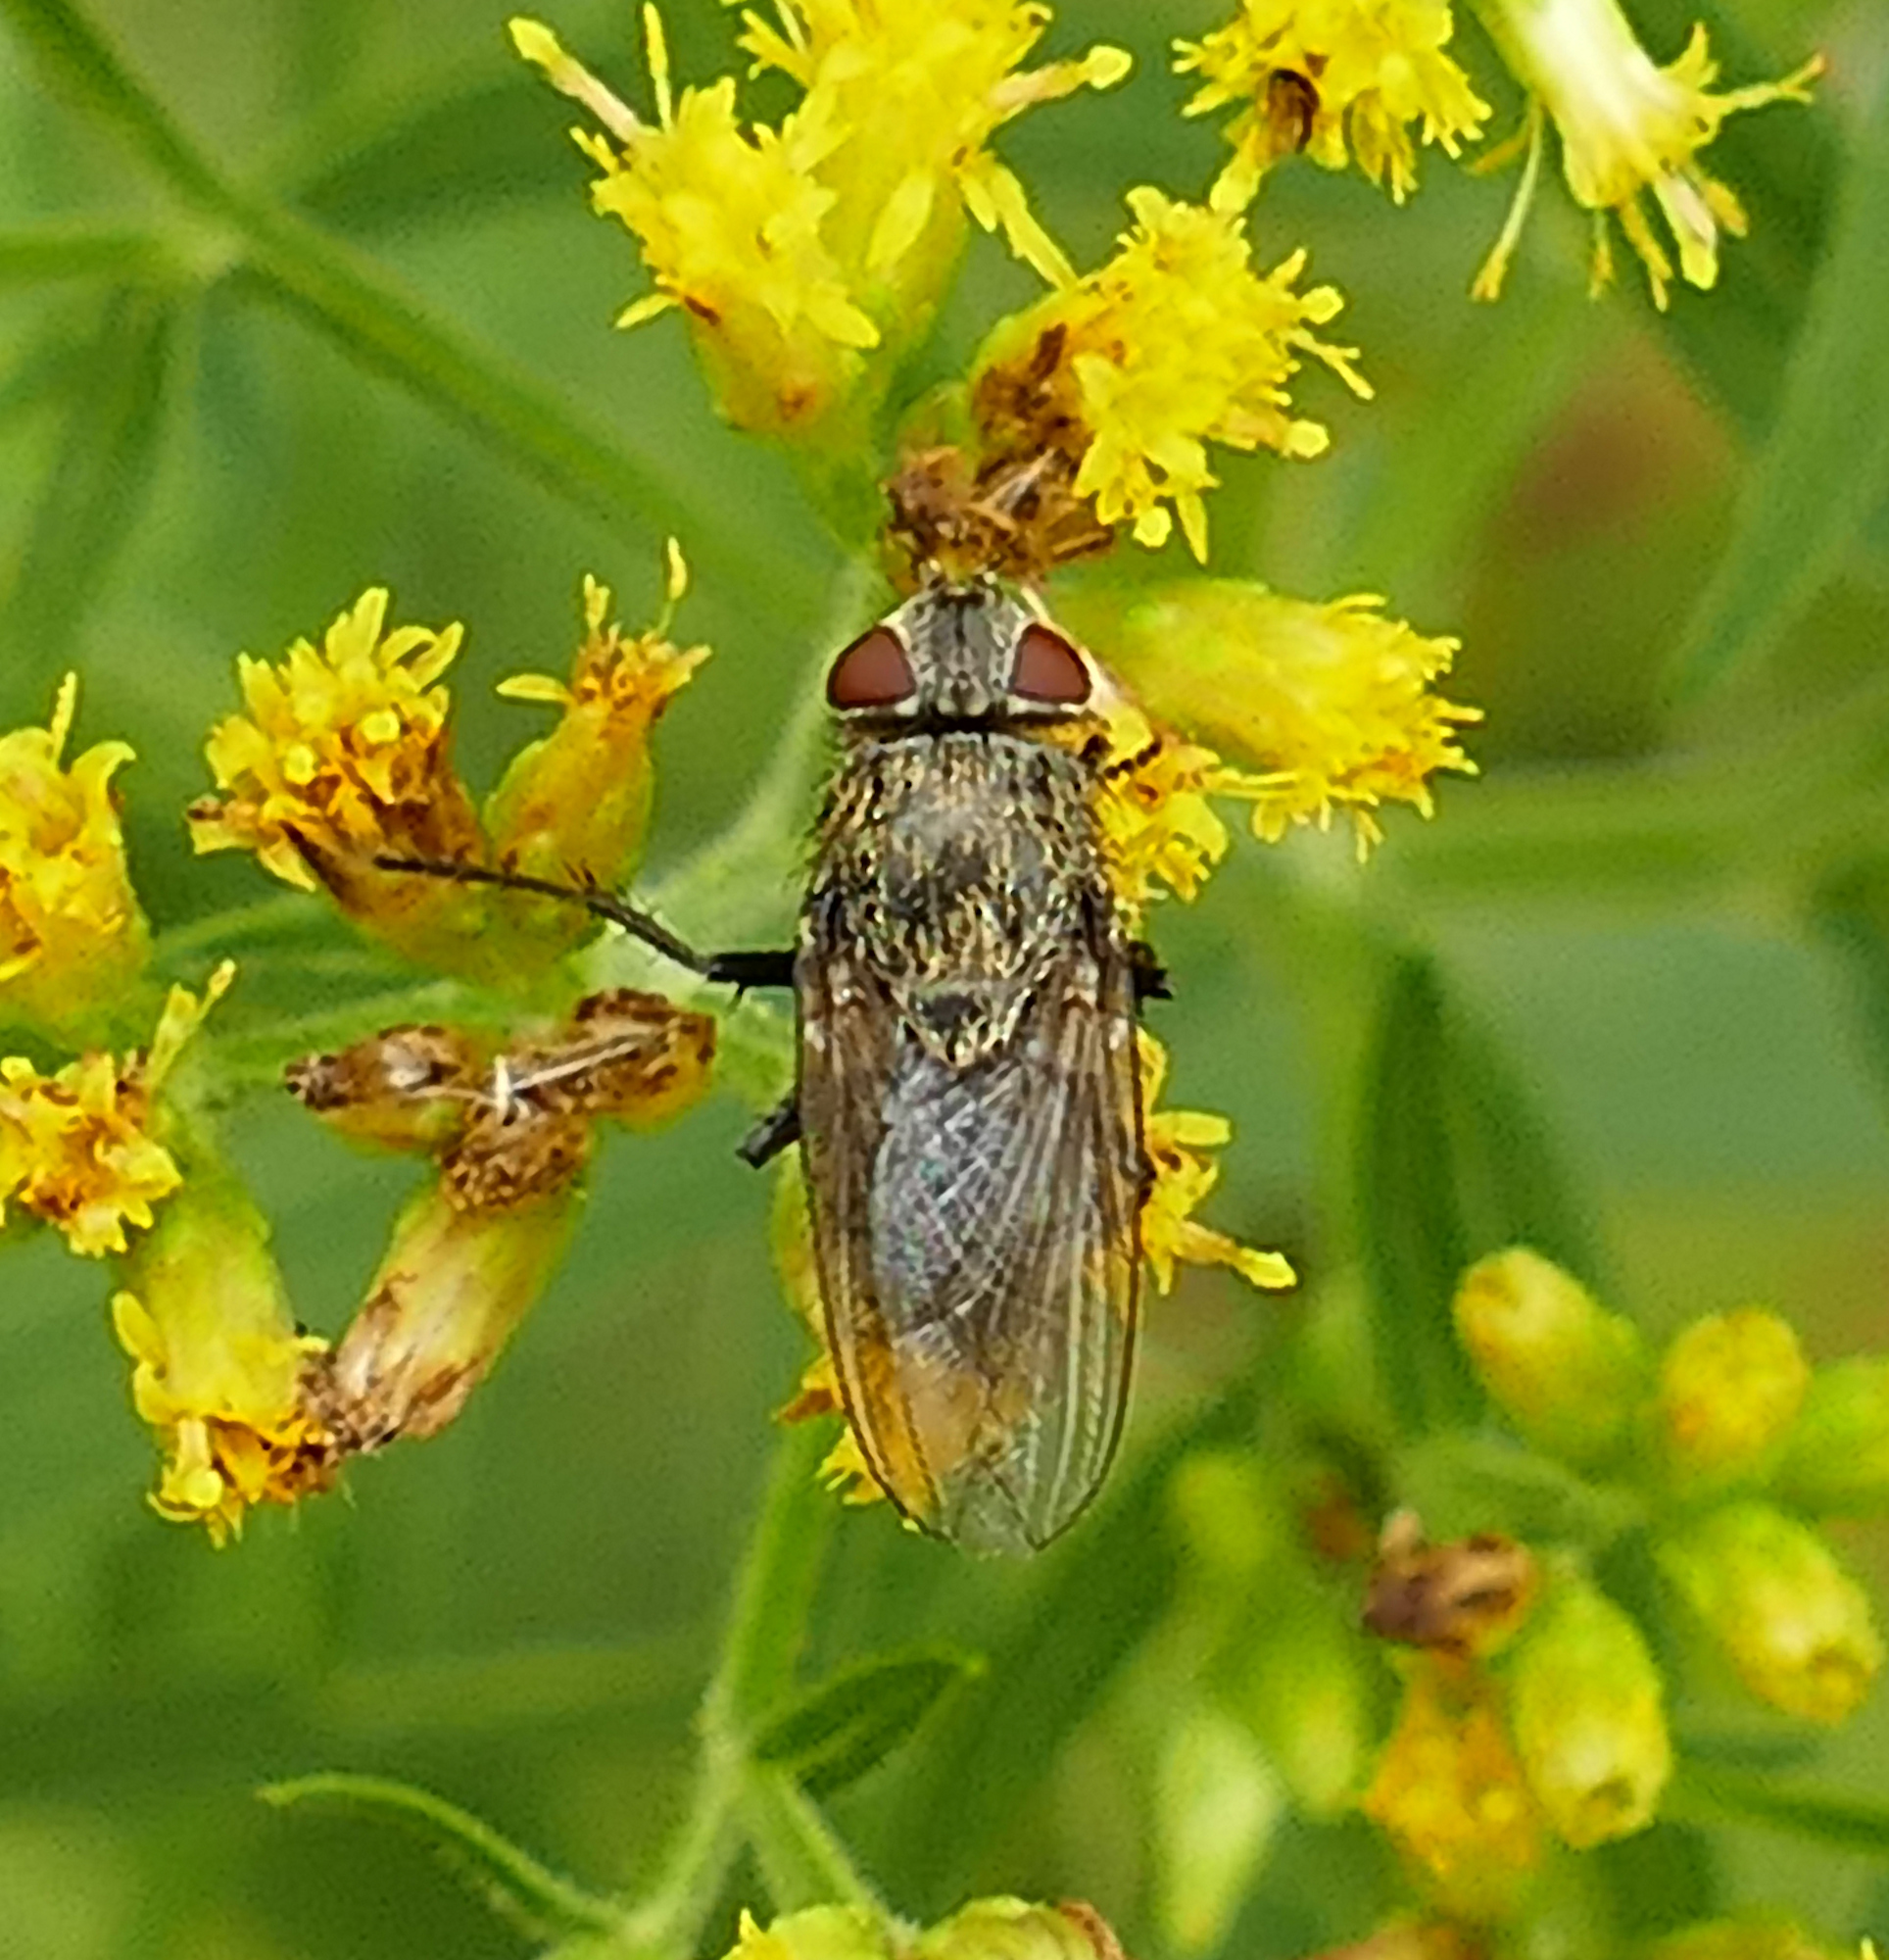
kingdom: Animalia
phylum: Arthropoda
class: Insecta
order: Diptera
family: Polleniidae
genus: Pollenia
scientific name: Pollenia
